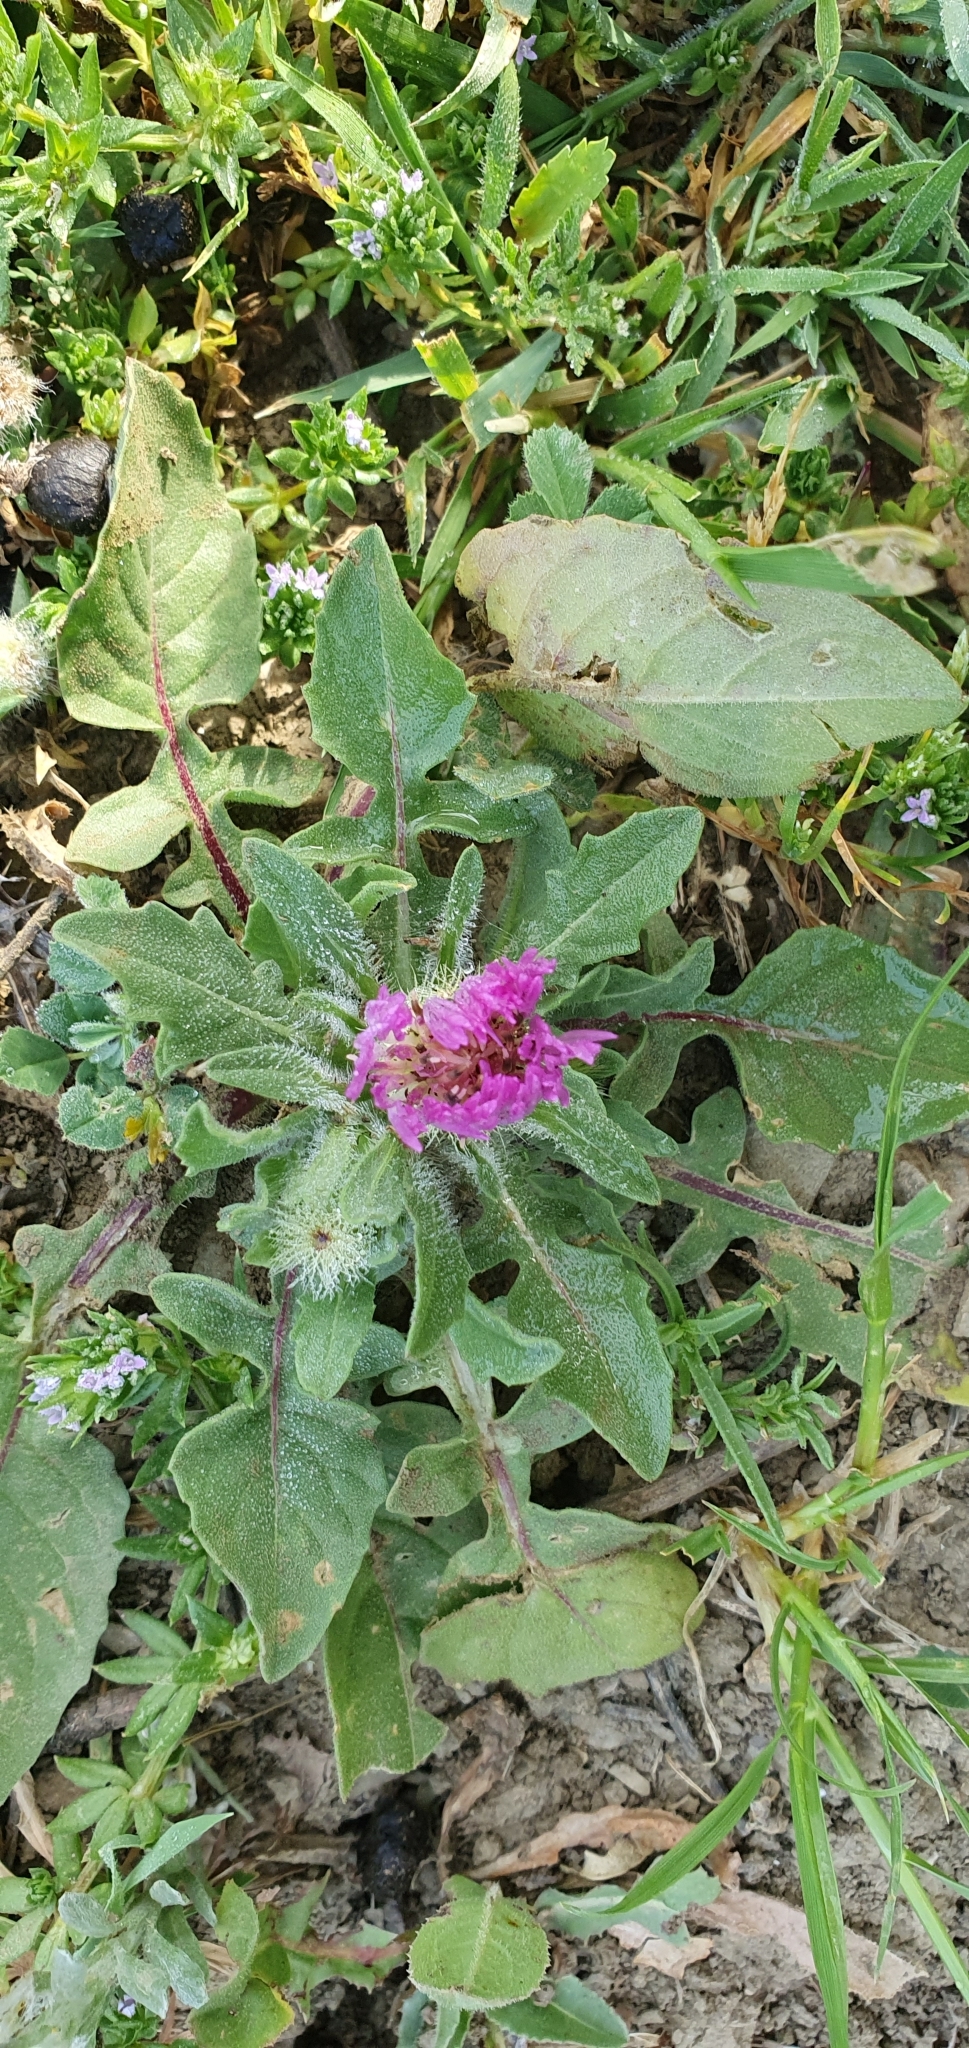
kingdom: Plantae
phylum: Tracheophyta
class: Magnoliopsida
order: Asterales
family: Asteraceae
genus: Centaurea
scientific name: Centaurea pullata
